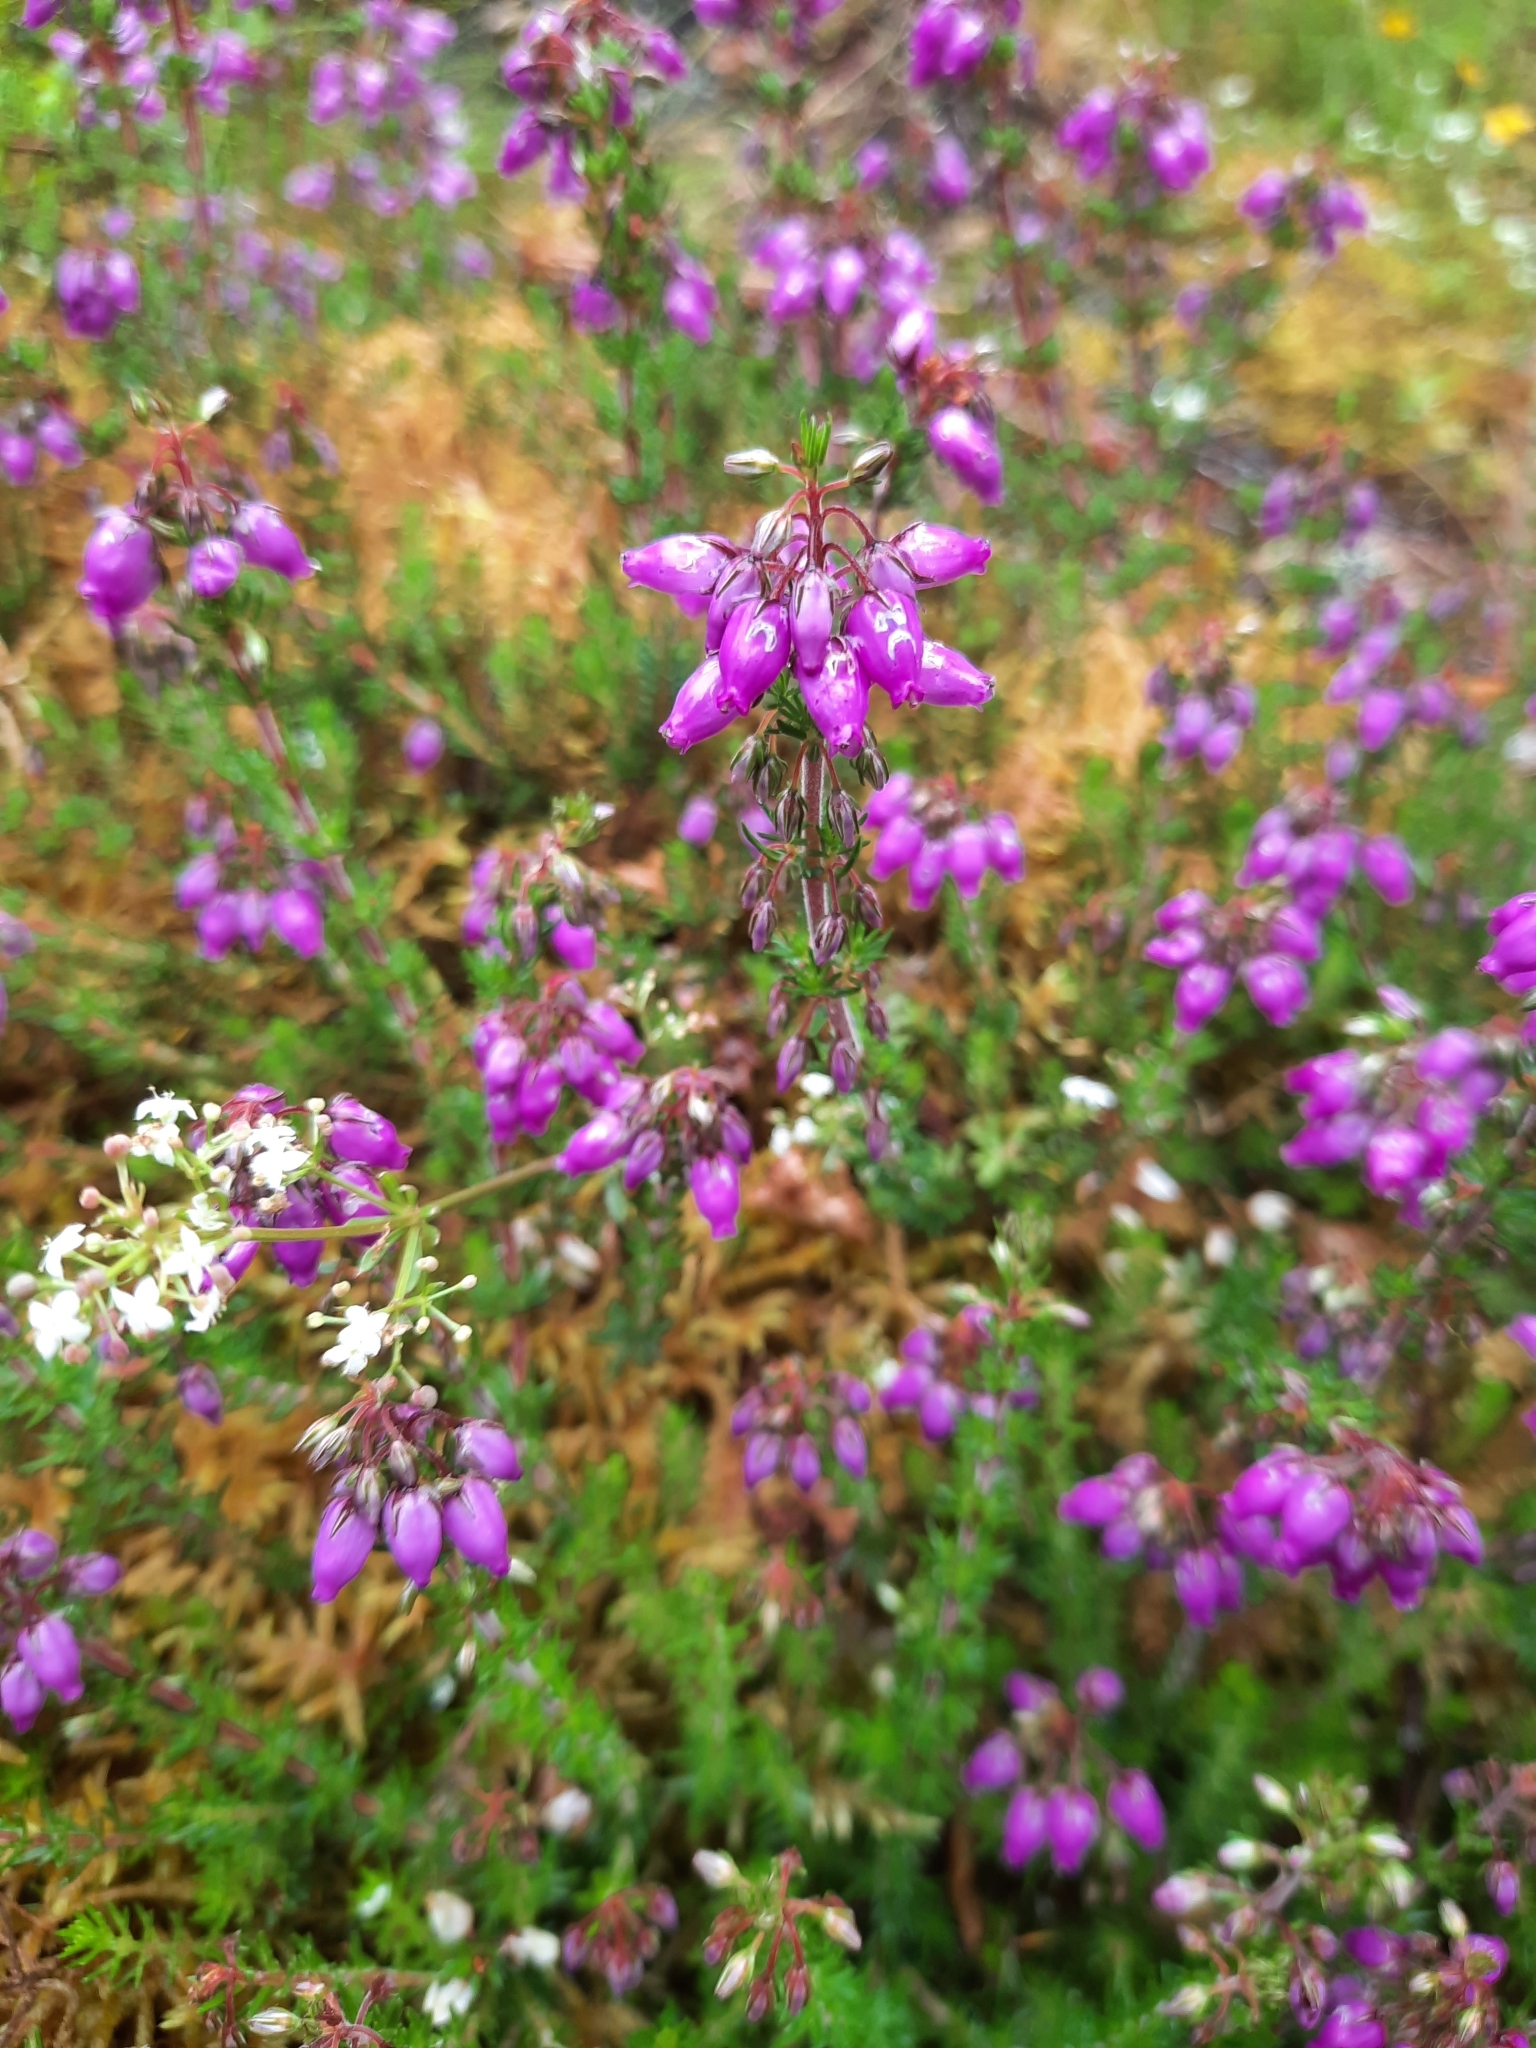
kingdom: Plantae
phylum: Tracheophyta
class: Magnoliopsida
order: Ericales
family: Ericaceae
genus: Erica
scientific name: Erica cinerea
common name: Bell heather
